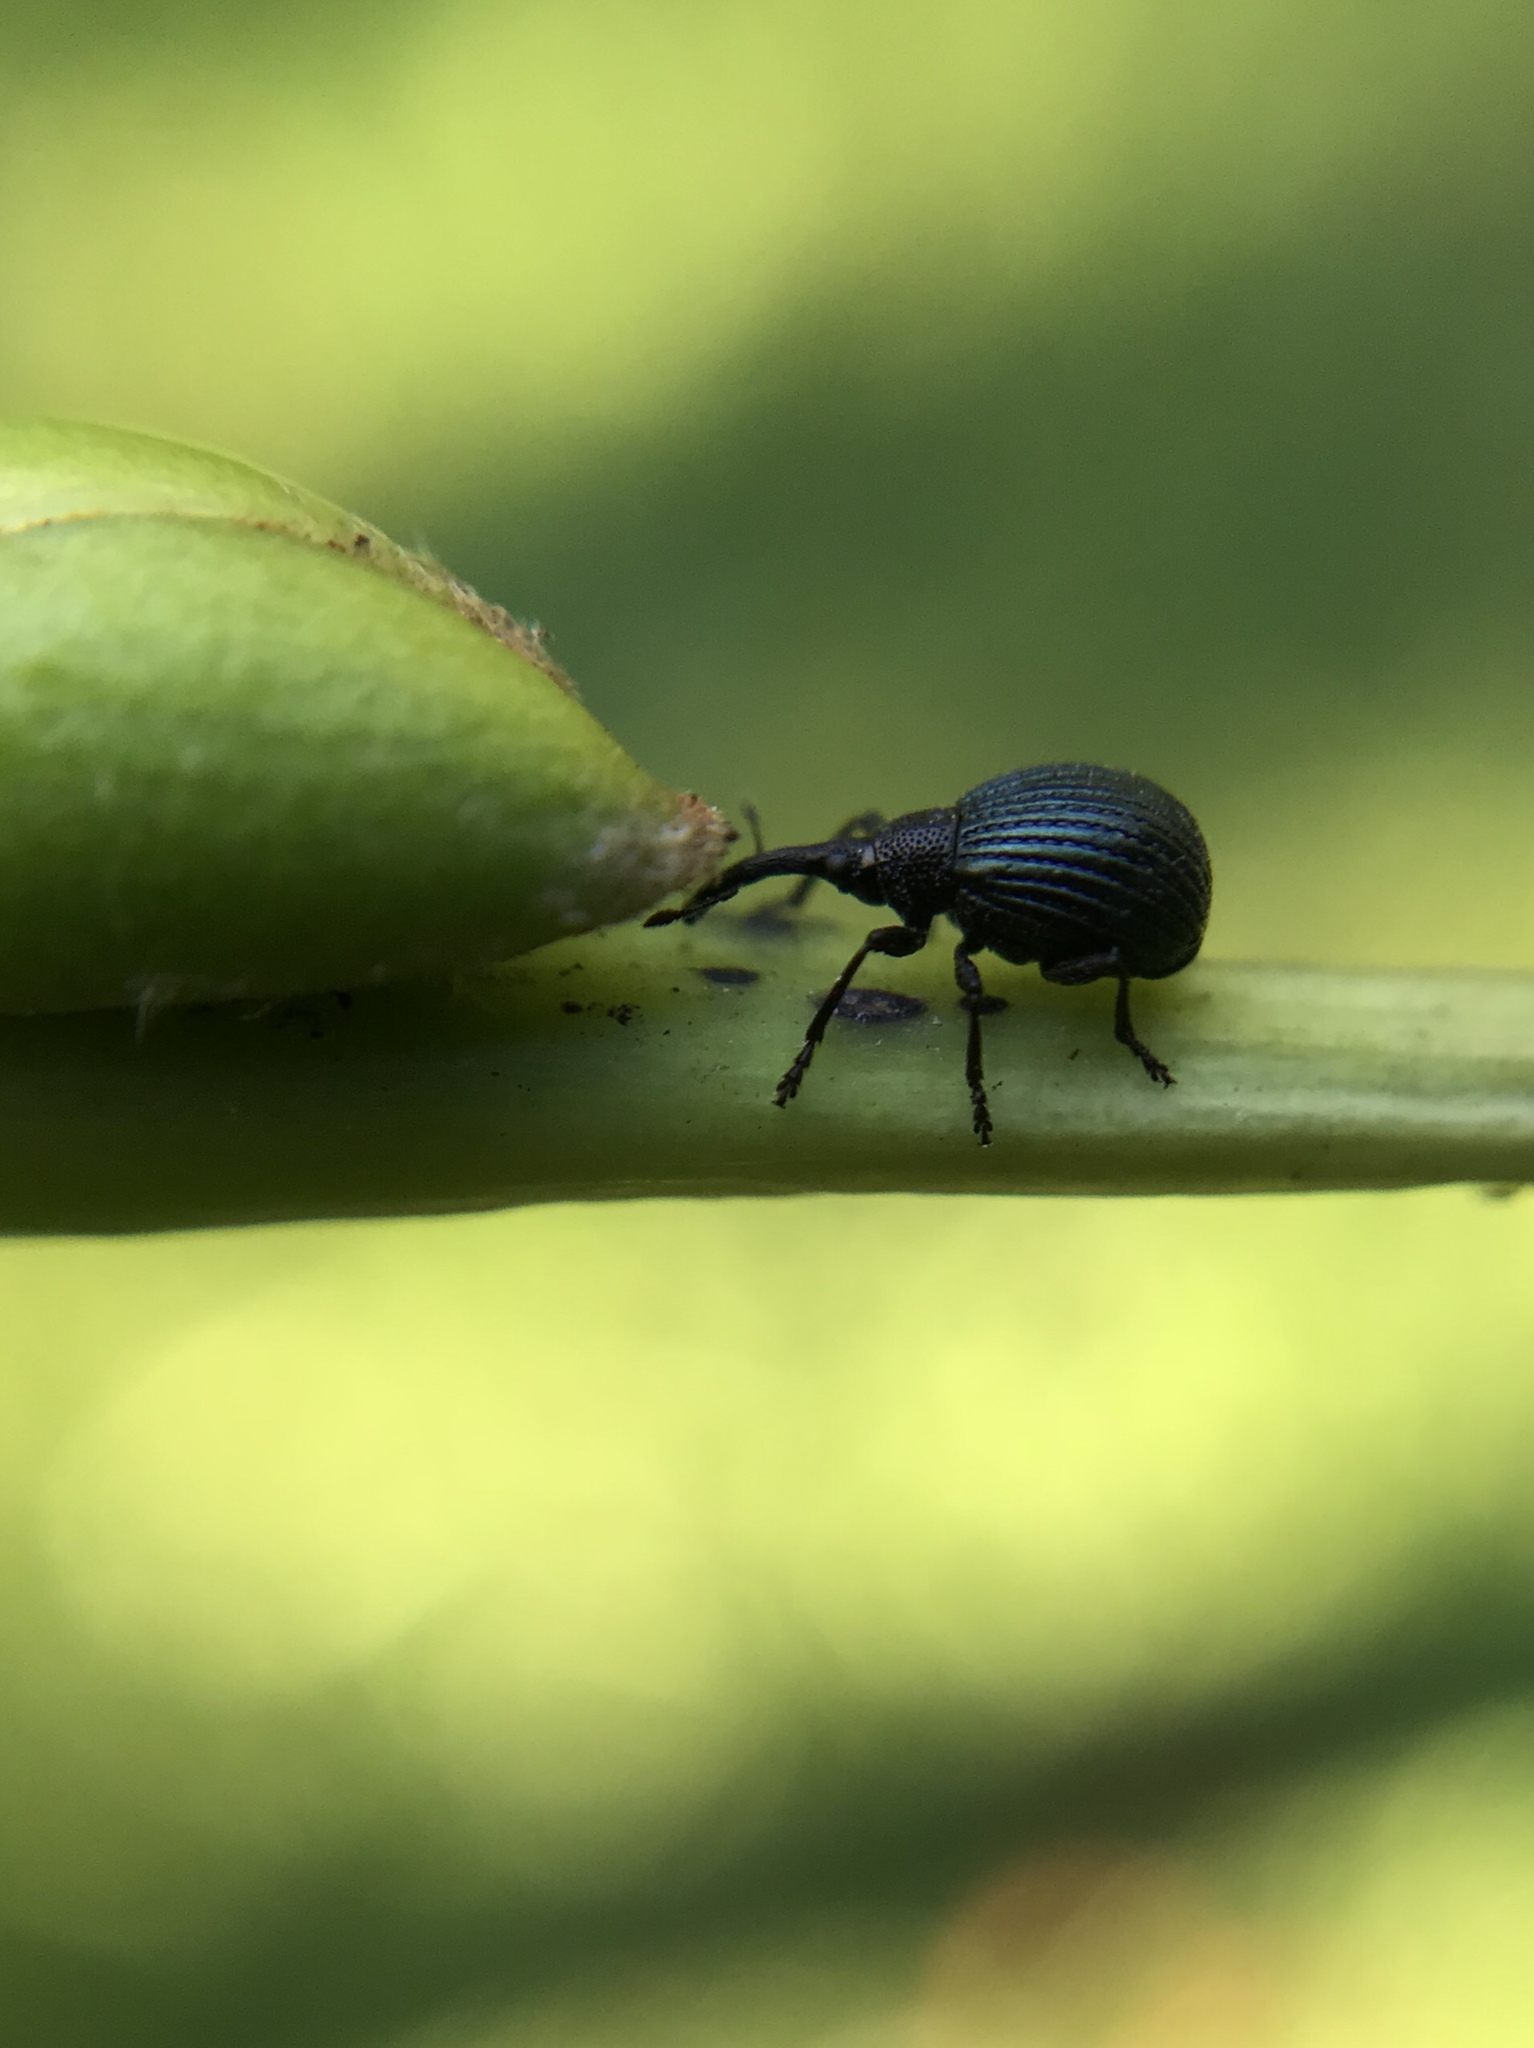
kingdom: Animalia
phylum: Arthropoda
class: Insecta
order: Coleoptera
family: Apionidae
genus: Holotrichapion
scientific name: Holotrichapion pisi
